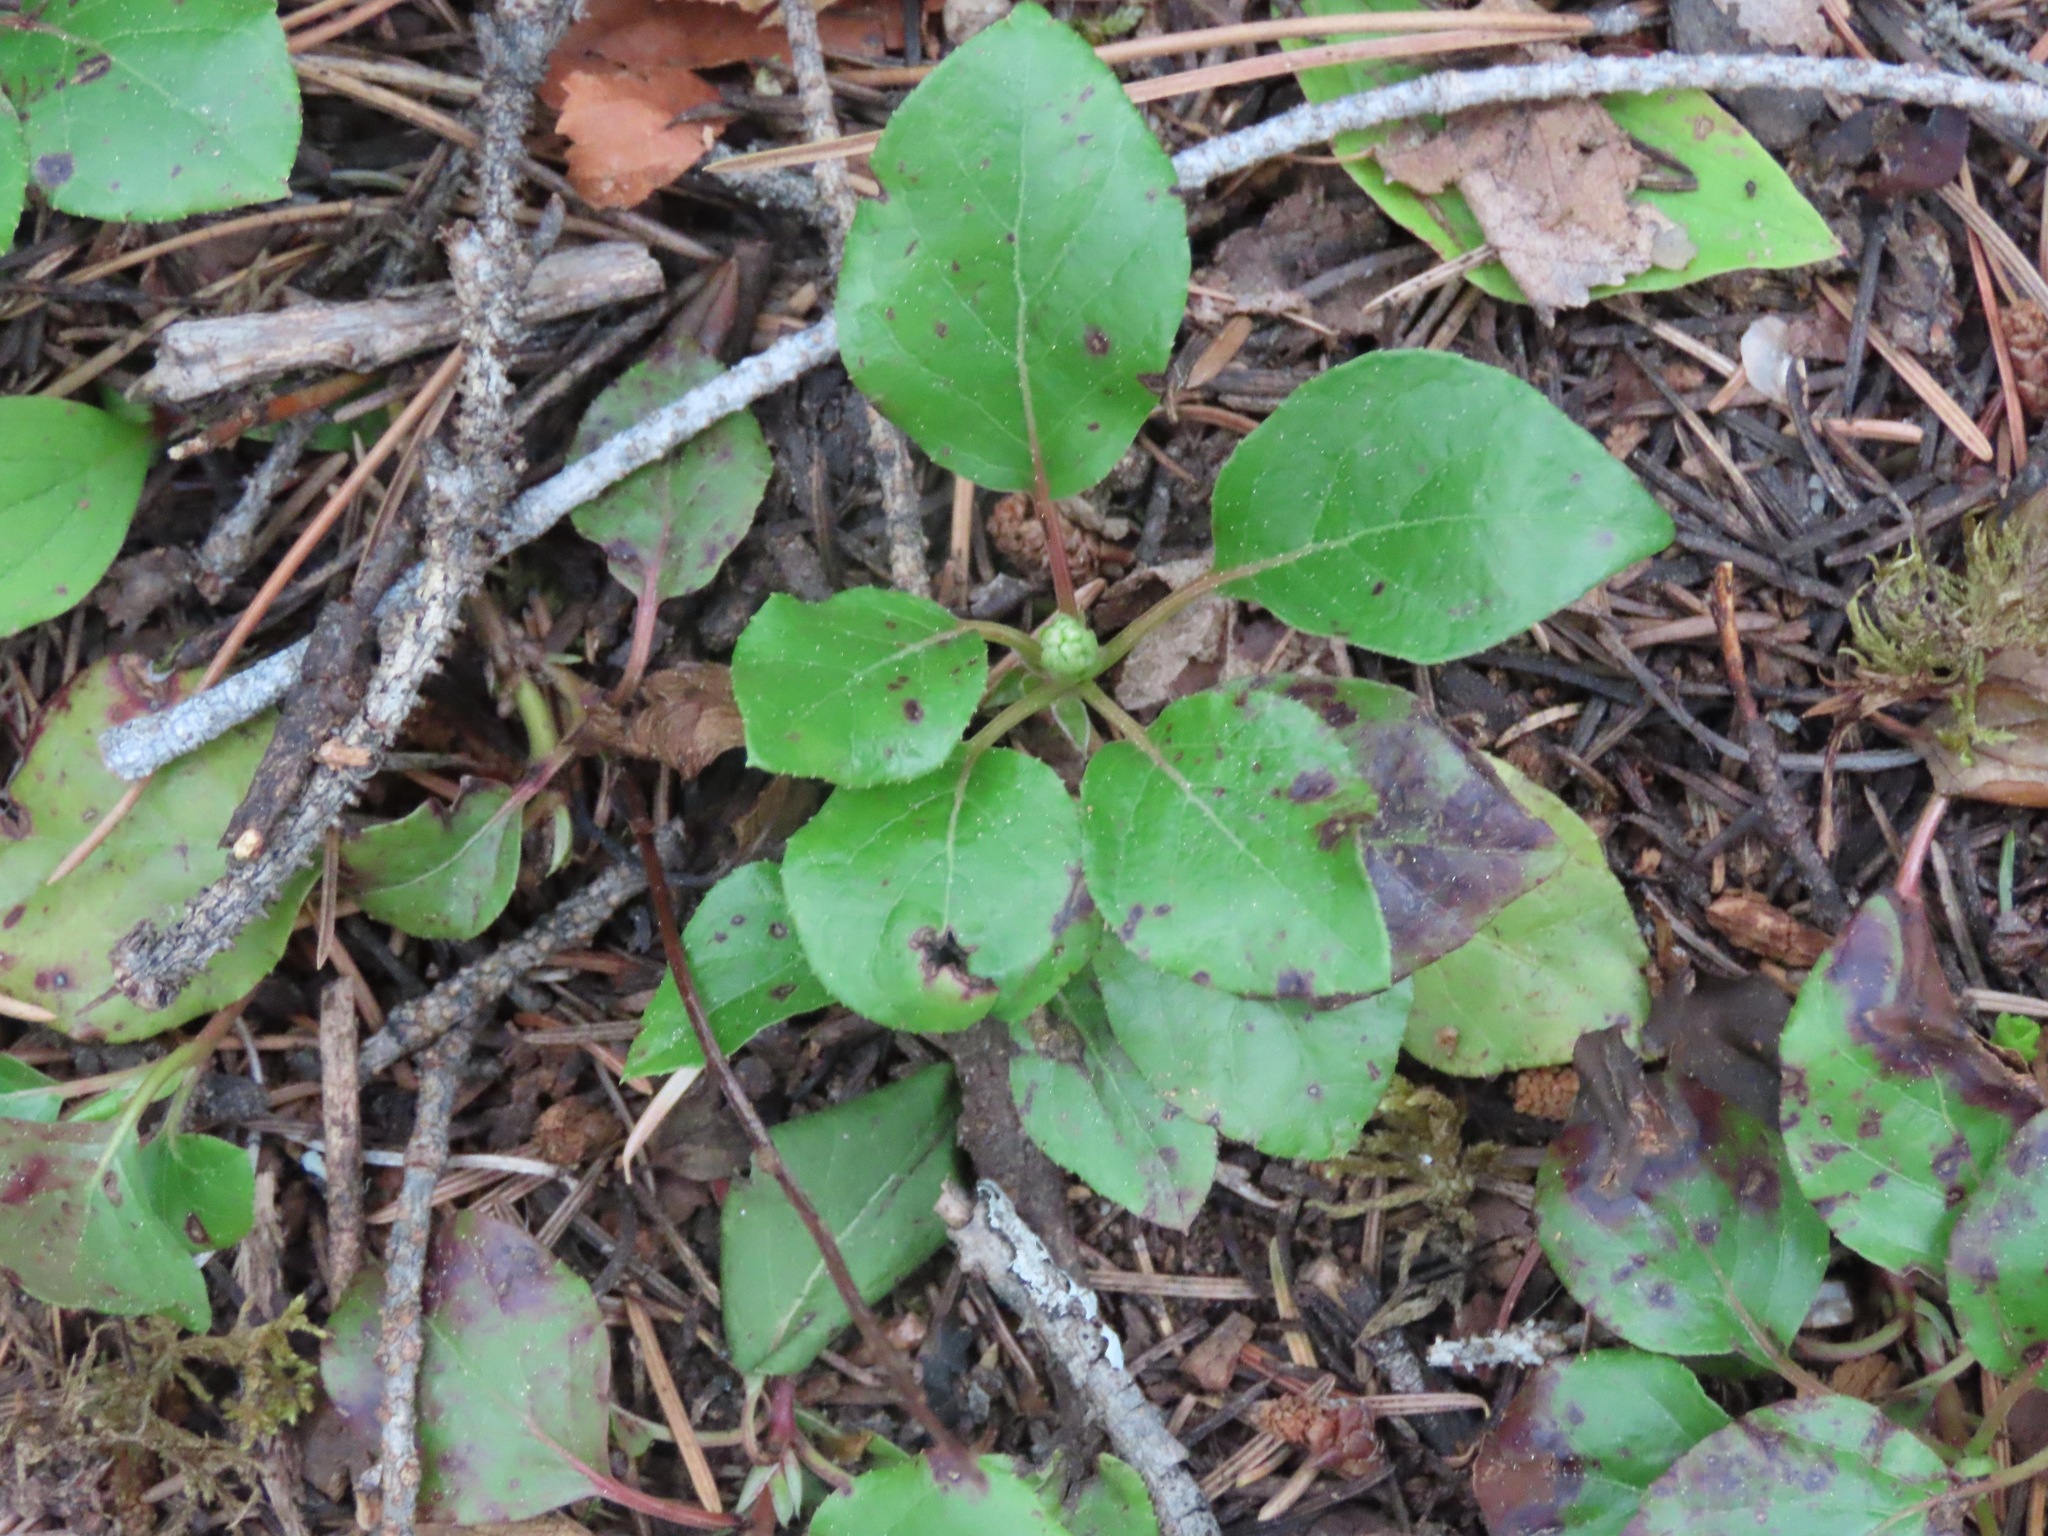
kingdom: Plantae
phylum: Tracheophyta
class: Magnoliopsida
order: Ericales
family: Ericaceae
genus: Orthilia
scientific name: Orthilia secunda
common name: One-sided orthilia
